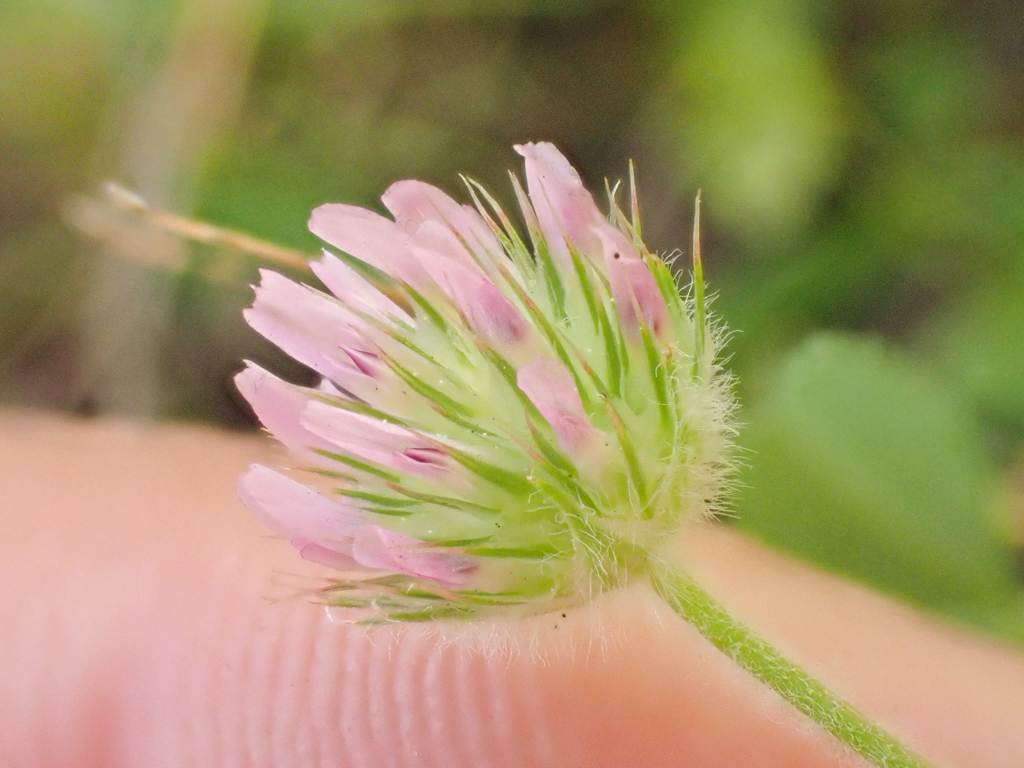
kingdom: Plantae
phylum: Tracheophyta
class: Magnoliopsida
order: Fabales
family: Fabaceae
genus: Trifolium
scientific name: Trifolium microcephalum
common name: Maiden clover
